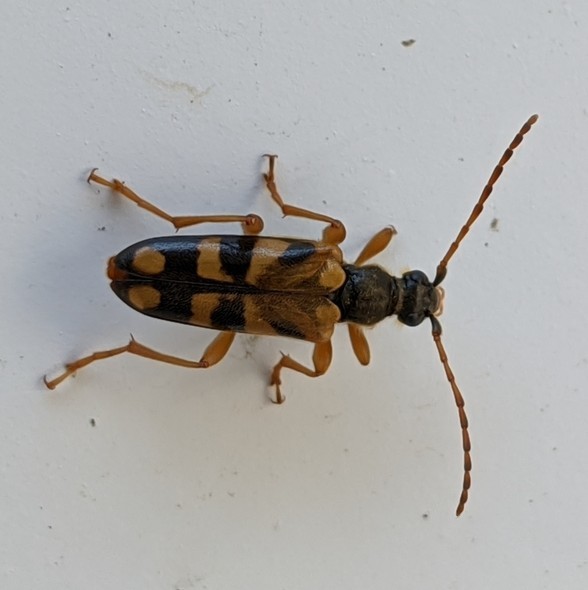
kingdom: Animalia
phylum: Arthropoda
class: Insecta
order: Coleoptera
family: Cerambycidae
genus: Xestoleptura
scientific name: Xestoleptura crassipes
